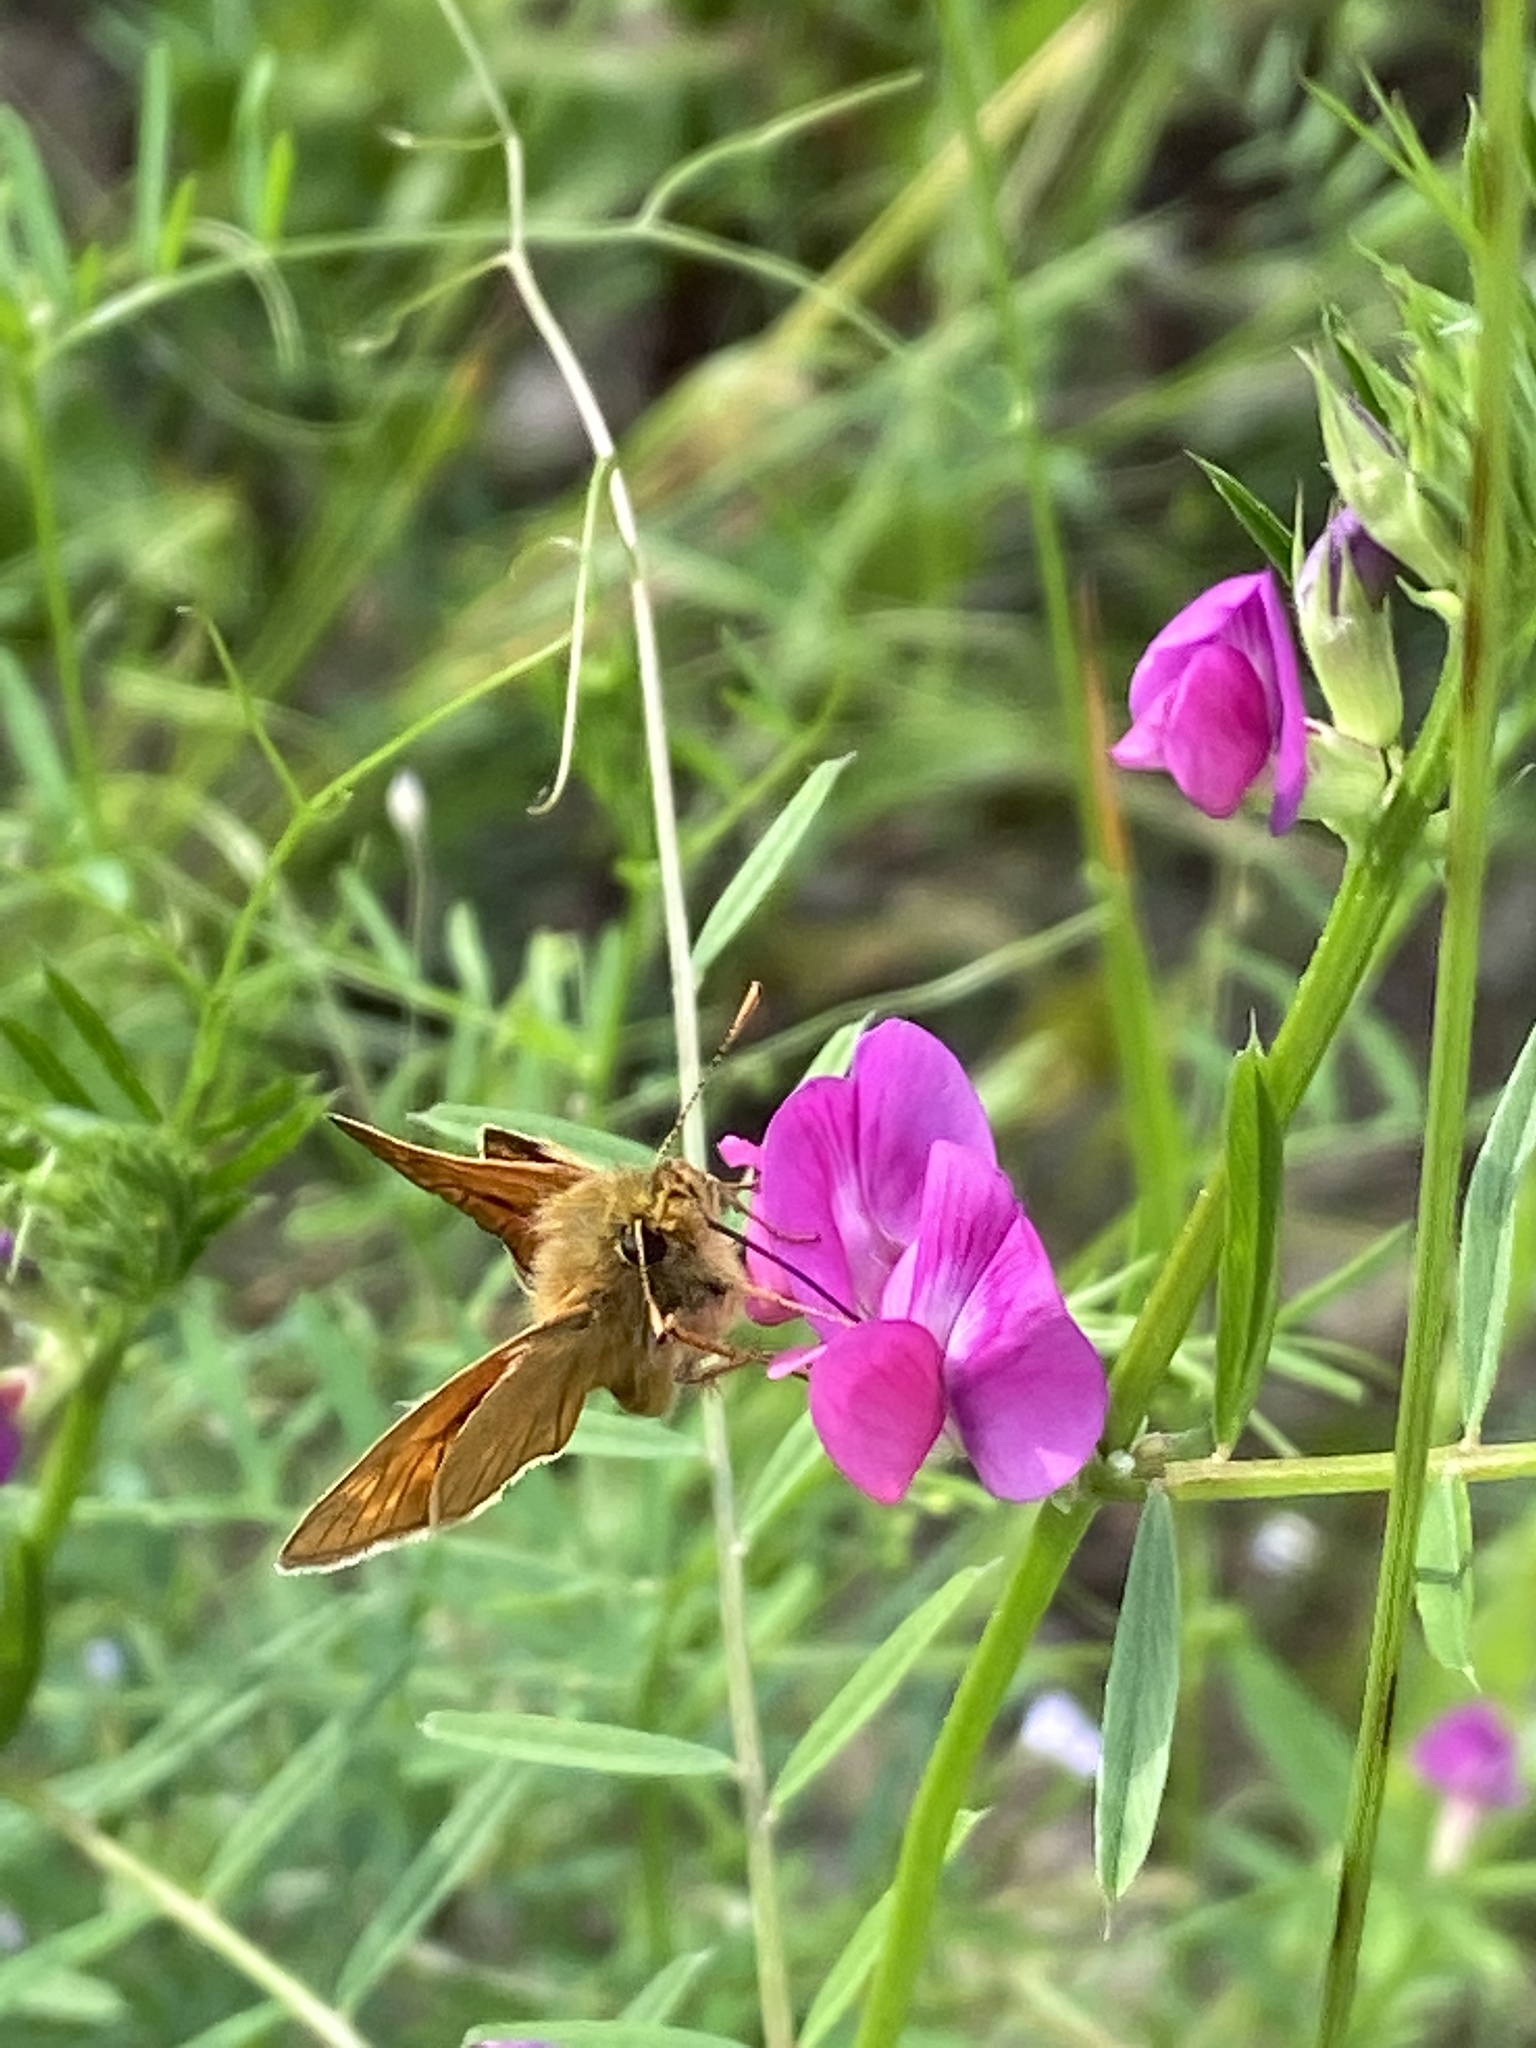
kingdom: Animalia
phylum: Arthropoda
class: Insecta
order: Lepidoptera
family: Hesperiidae
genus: Ochlodes
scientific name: Ochlodes venata
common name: Large skipper
